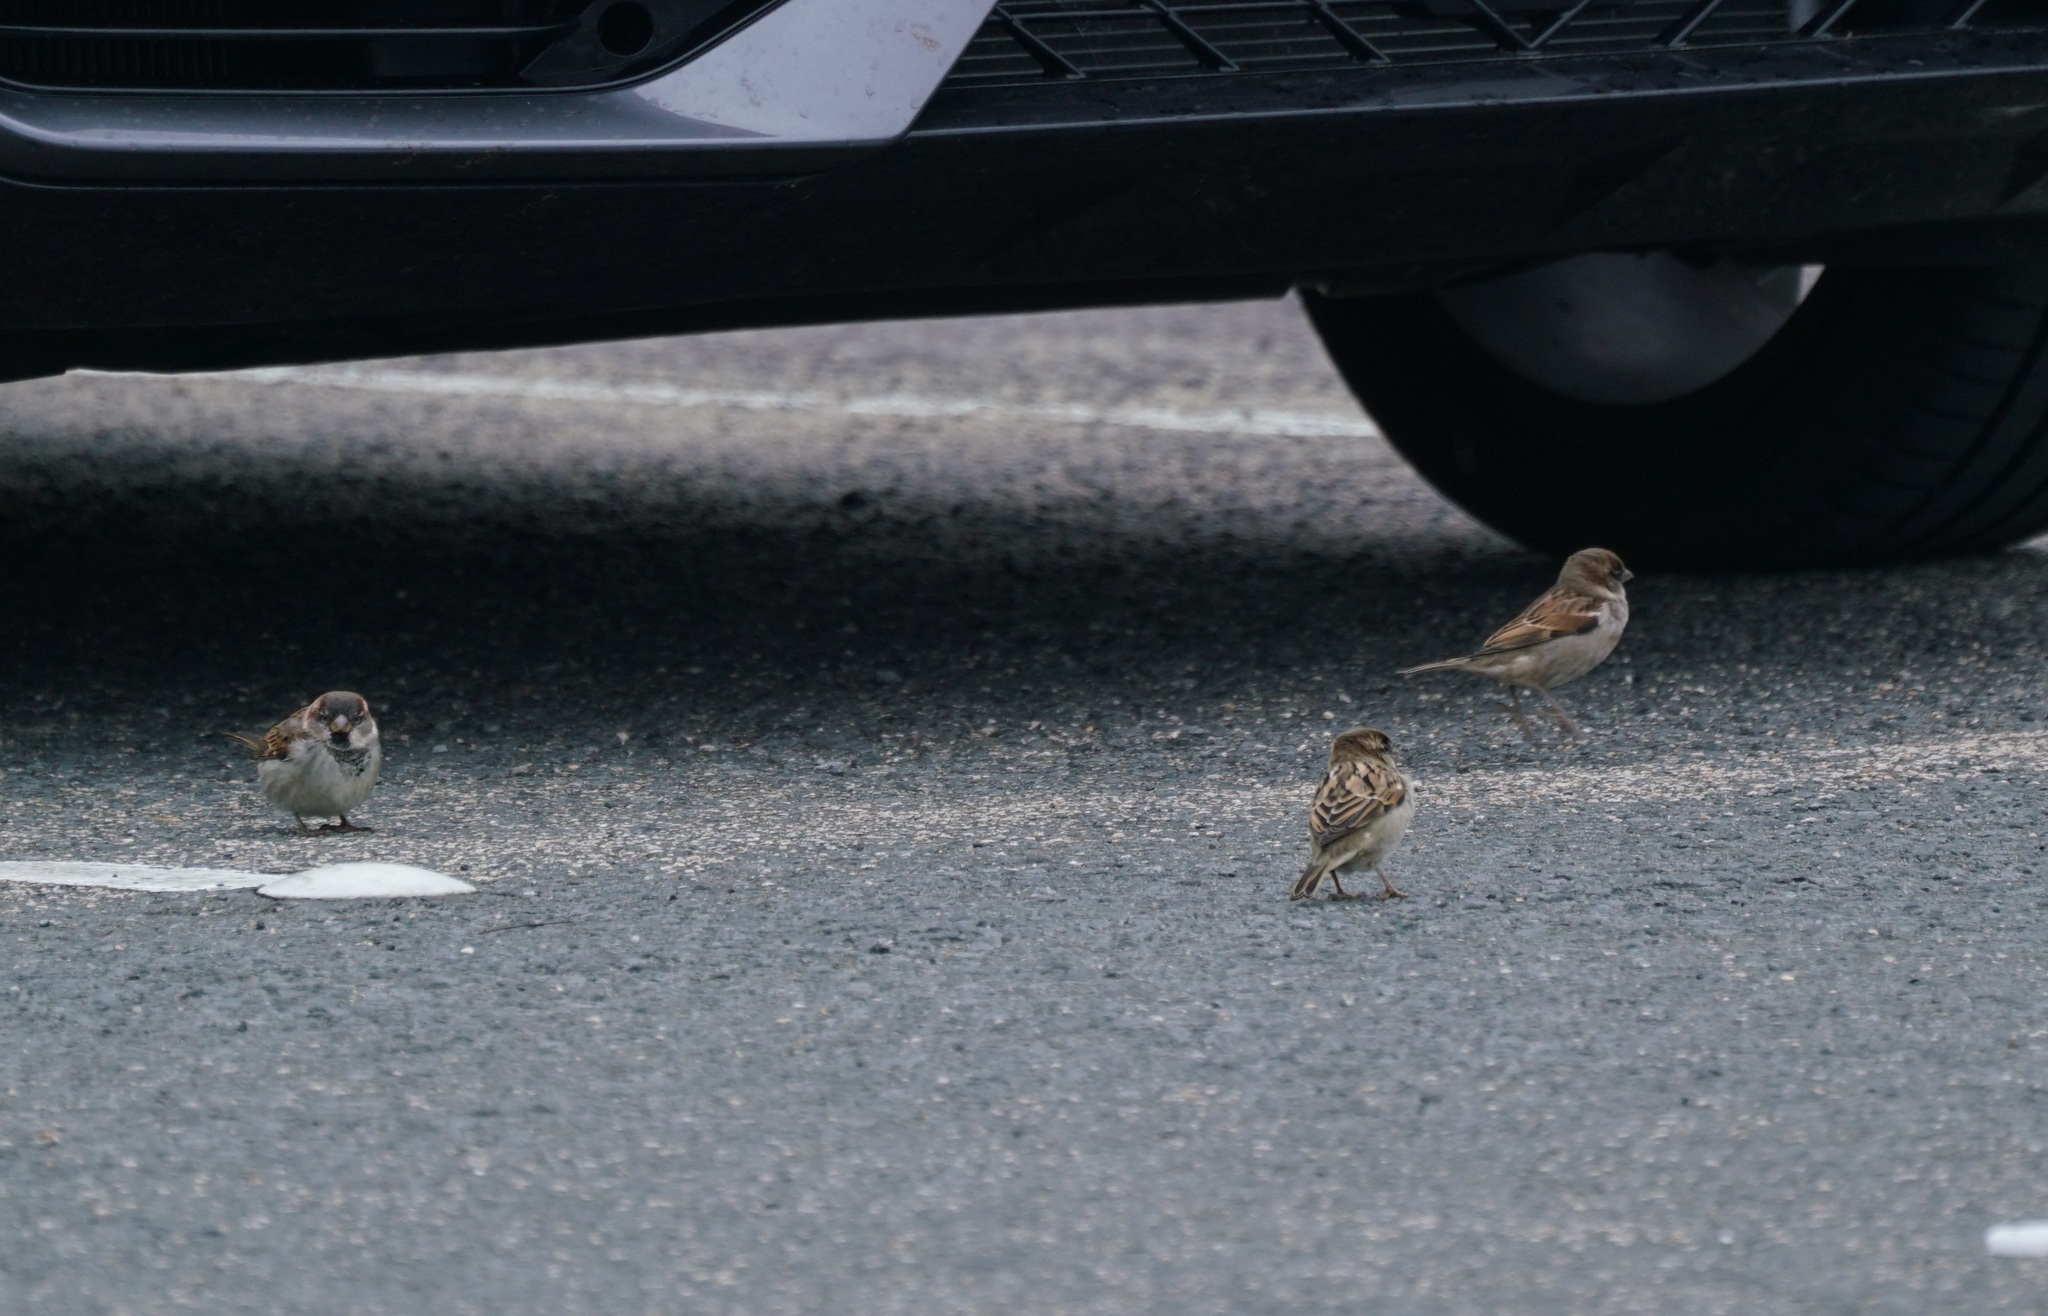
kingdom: Animalia
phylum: Chordata
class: Aves
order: Passeriformes
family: Passeridae
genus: Passer
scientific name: Passer domesticus
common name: House sparrow
